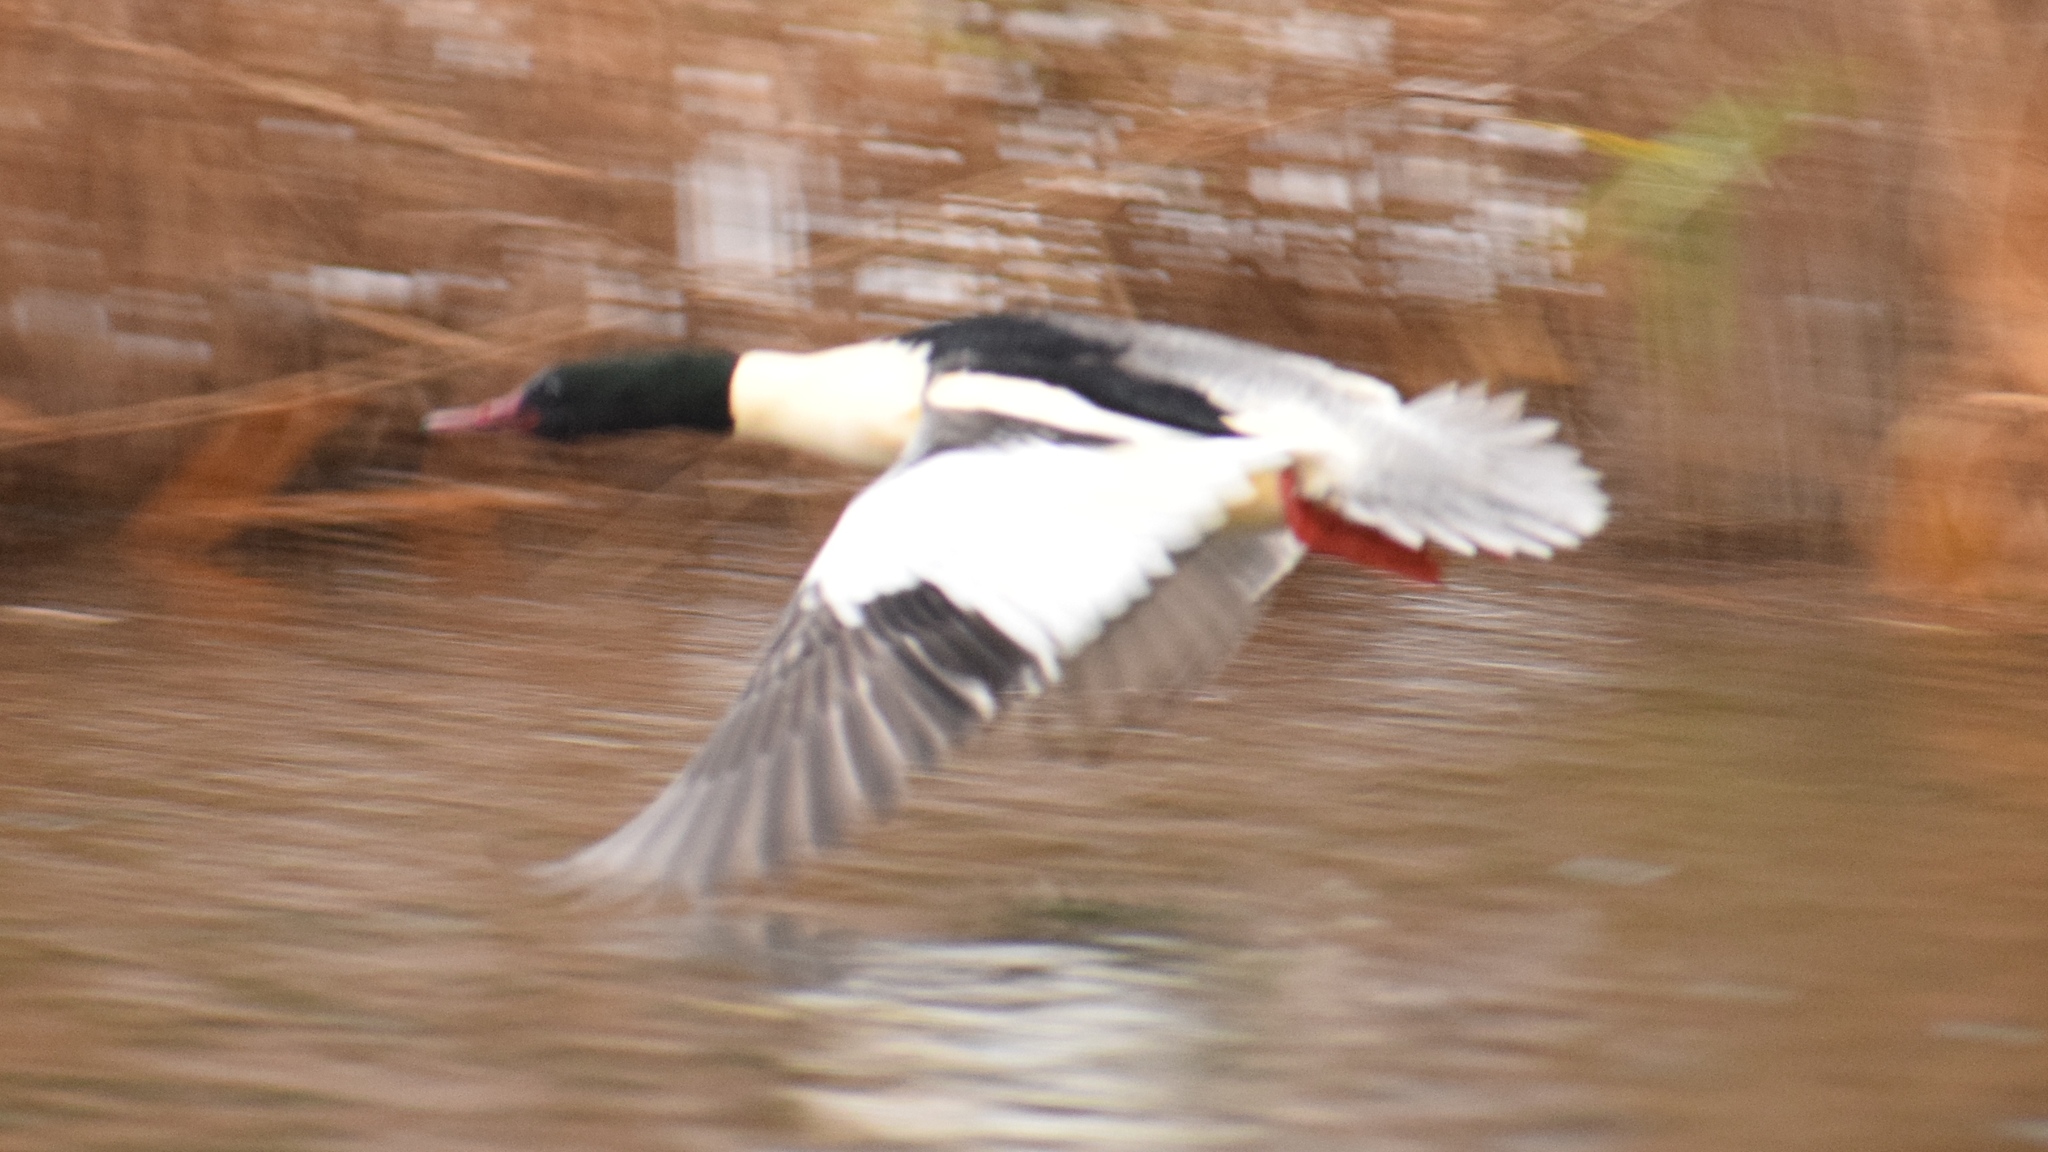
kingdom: Animalia
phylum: Chordata
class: Aves
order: Anseriformes
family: Anatidae
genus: Mergus
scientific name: Mergus merganser
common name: Common merganser
